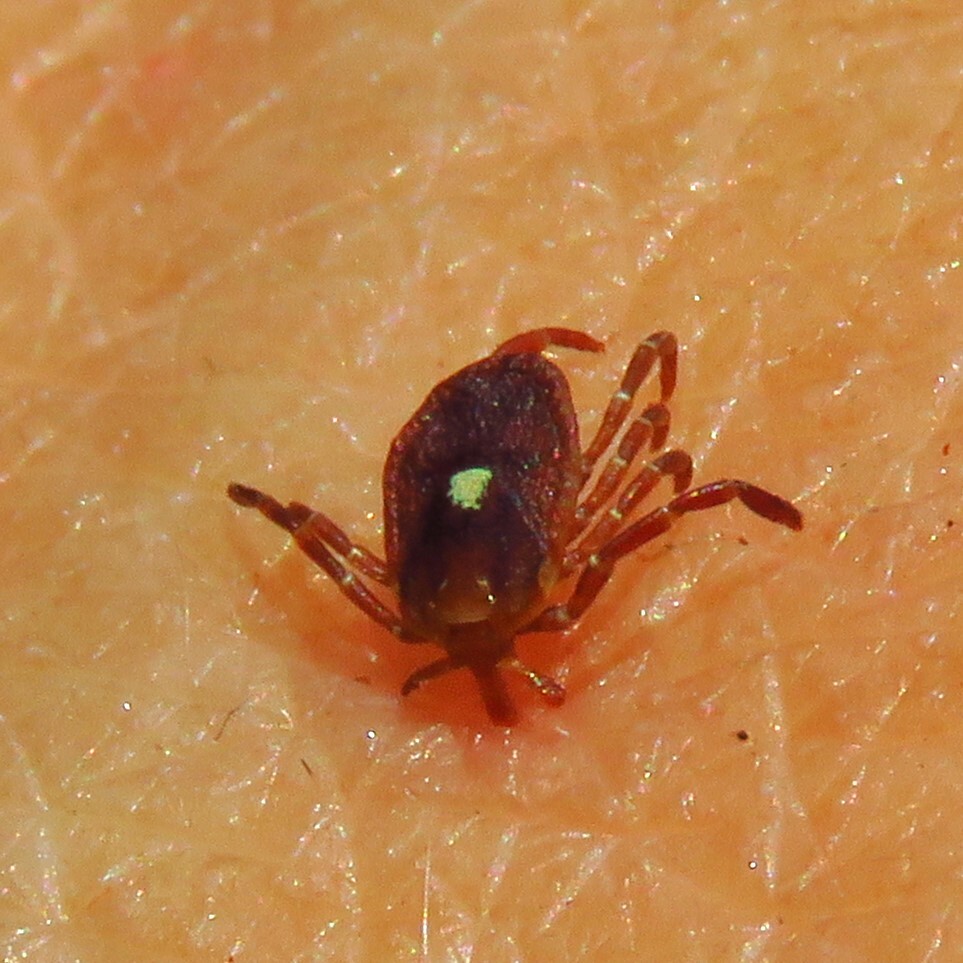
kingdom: Animalia
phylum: Arthropoda
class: Arachnida
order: Ixodida
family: Ixodidae
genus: Amblyomma
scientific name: Amblyomma americanum
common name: Lone star tick
